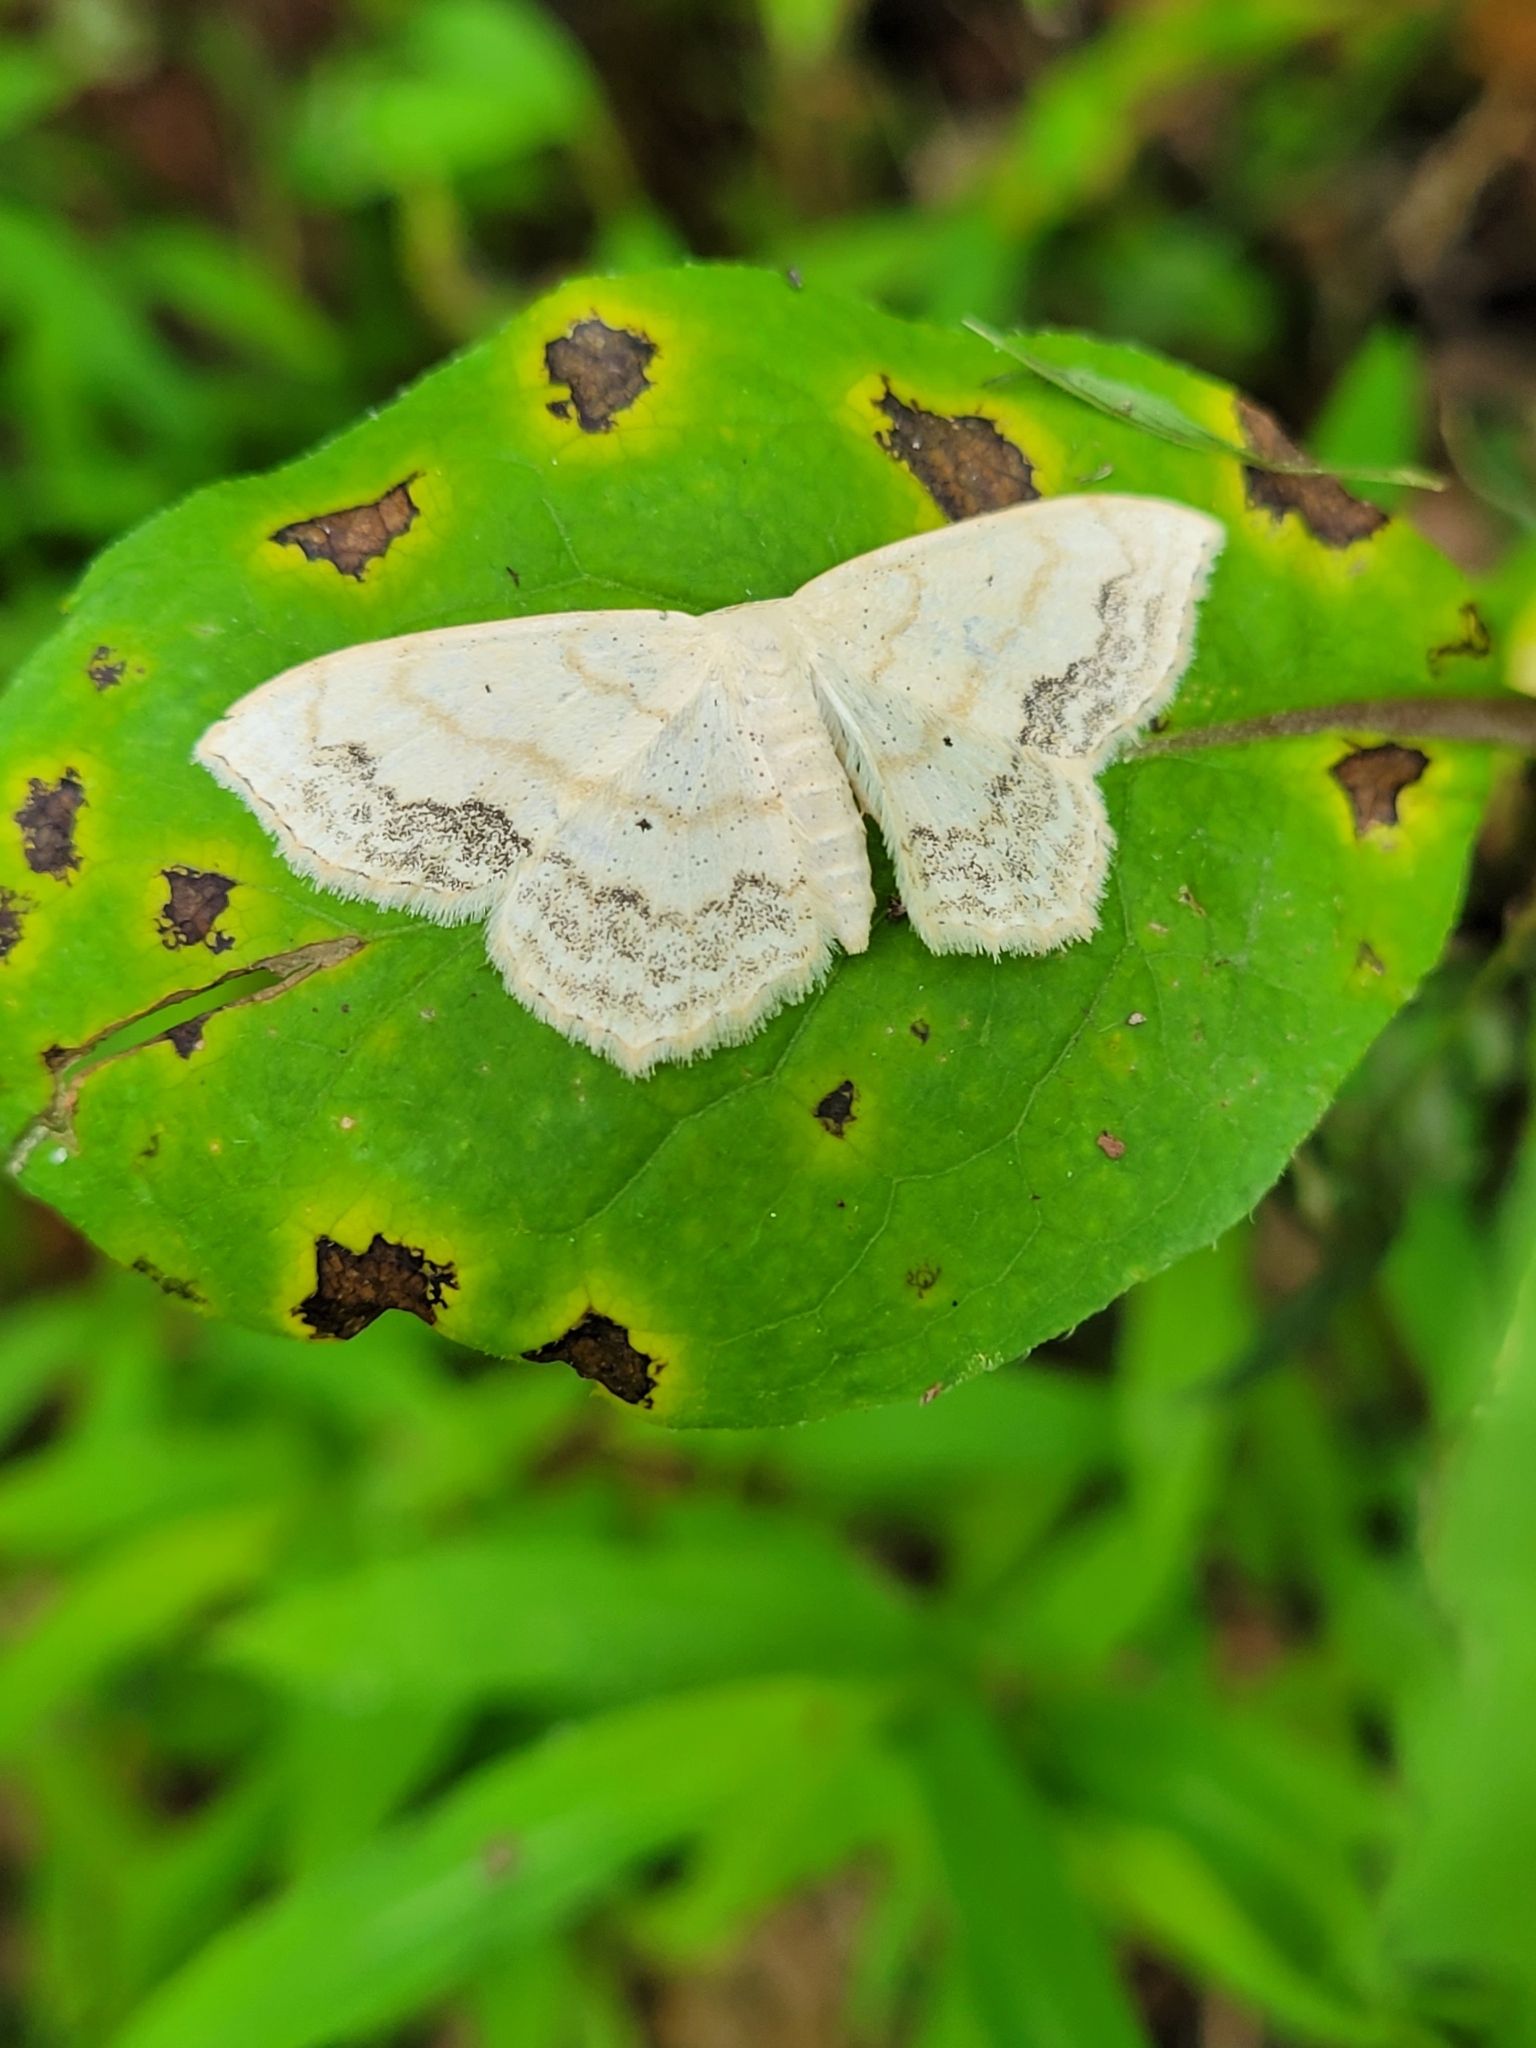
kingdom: Animalia
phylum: Arthropoda
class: Insecta
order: Lepidoptera
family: Geometridae
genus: Scopula
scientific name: Scopula limboundata
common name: Large lace border
